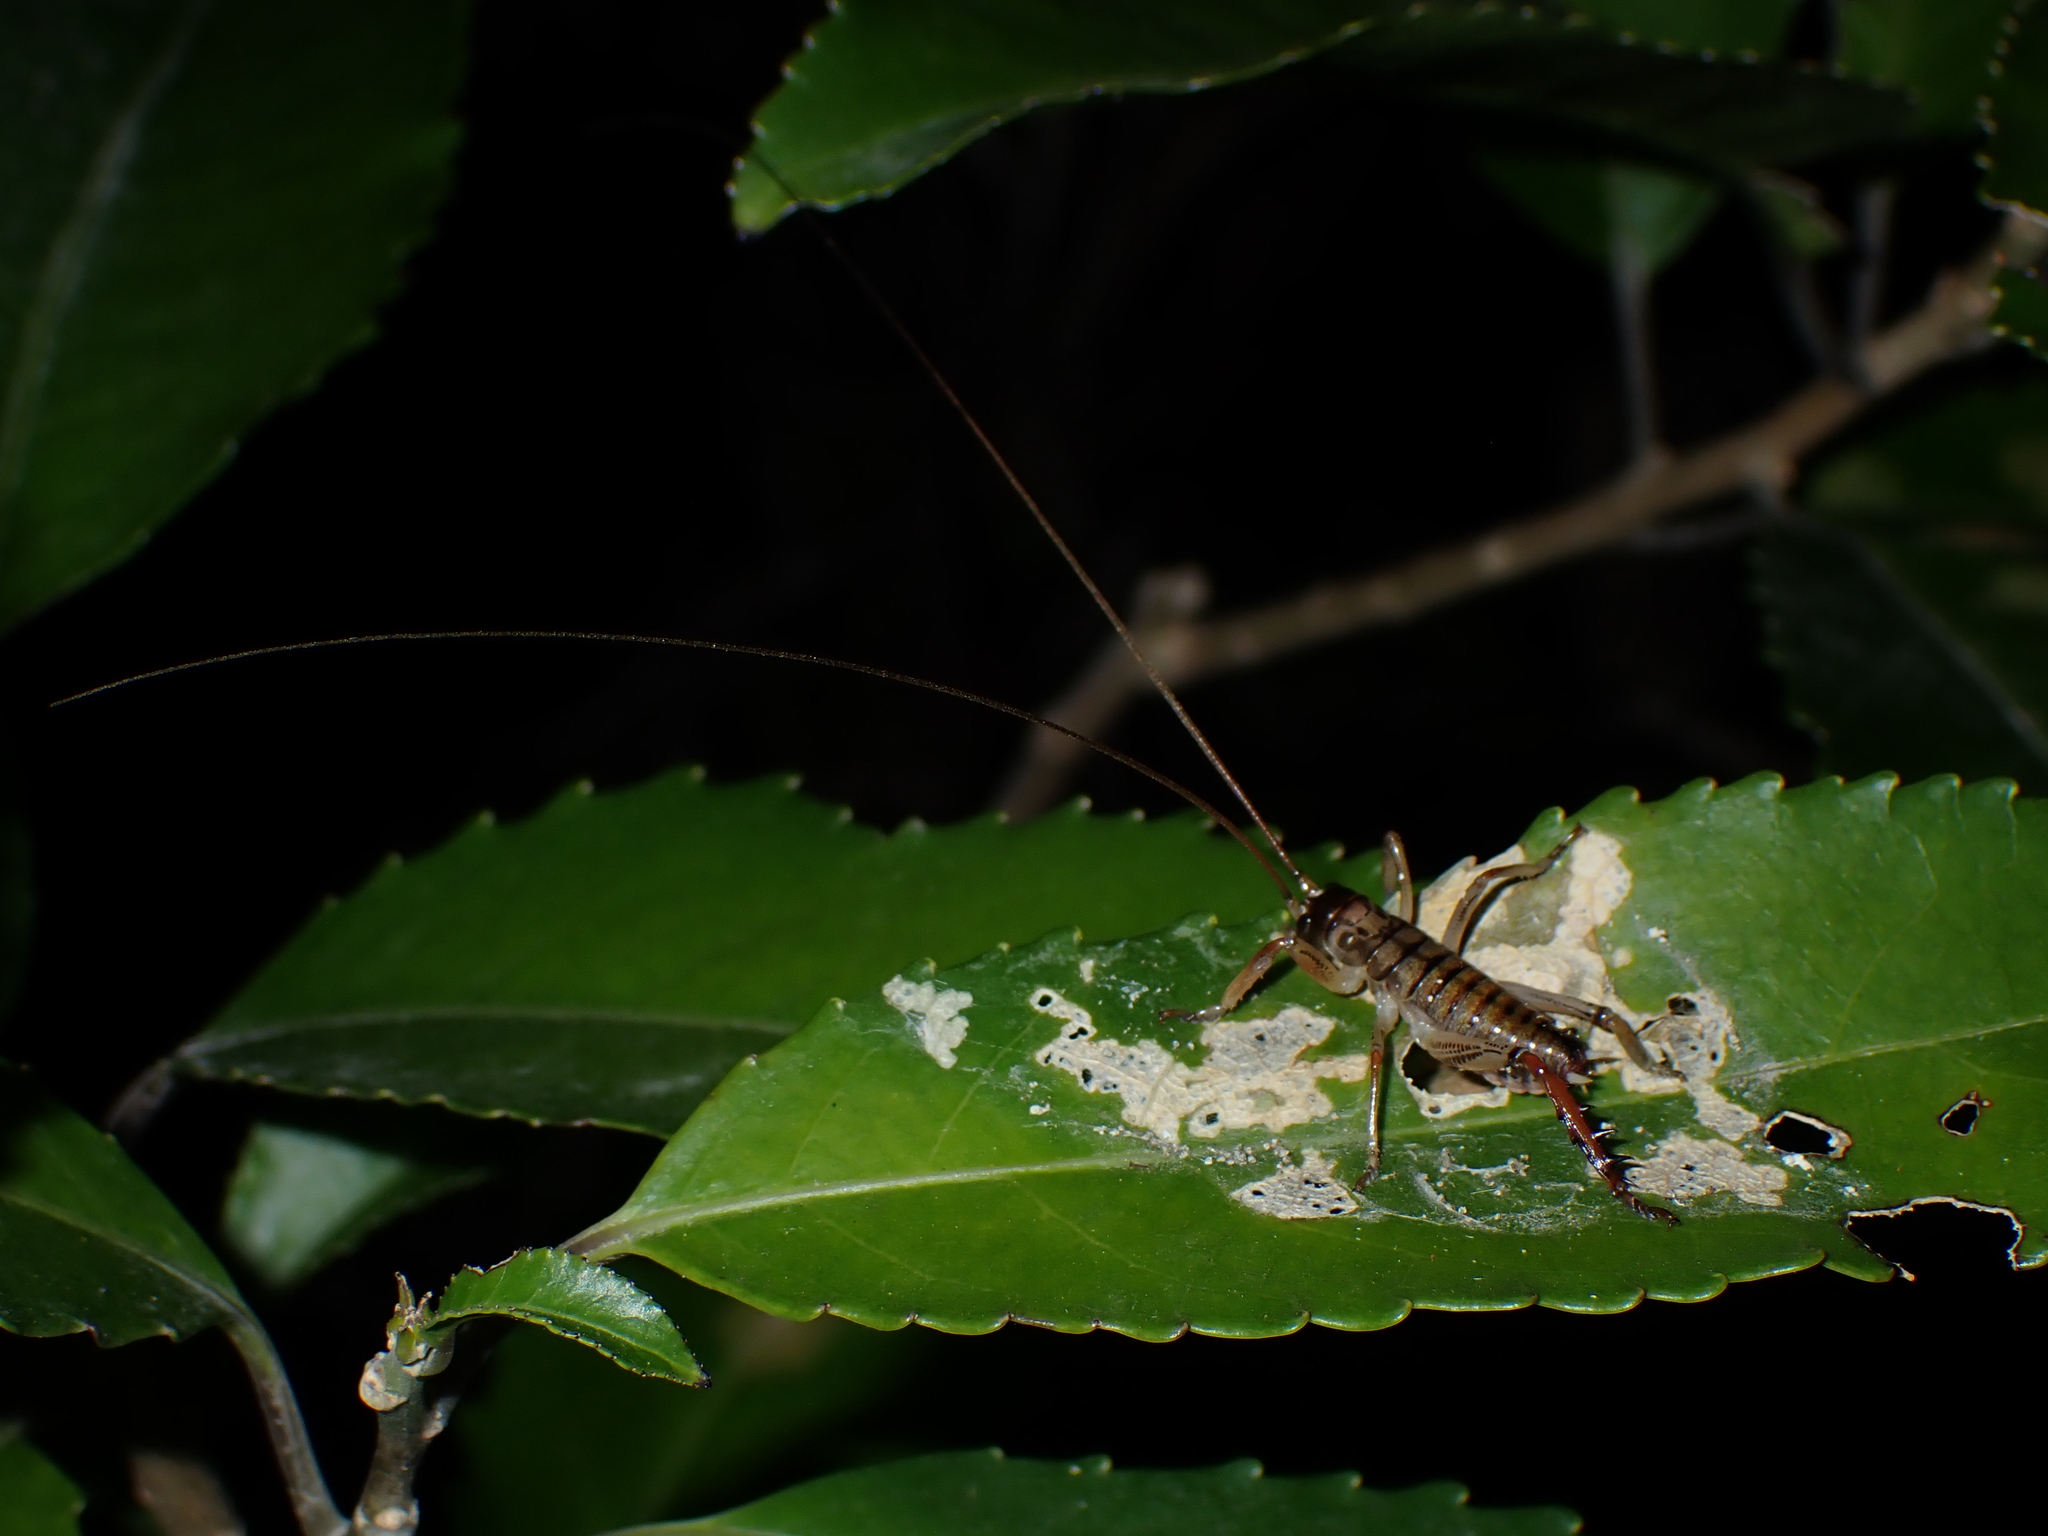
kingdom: Animalia
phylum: Arthropoda
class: Insecta
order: Orthoptera
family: Anostostomatidae
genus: Hemideina
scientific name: Hemideina thoracica
